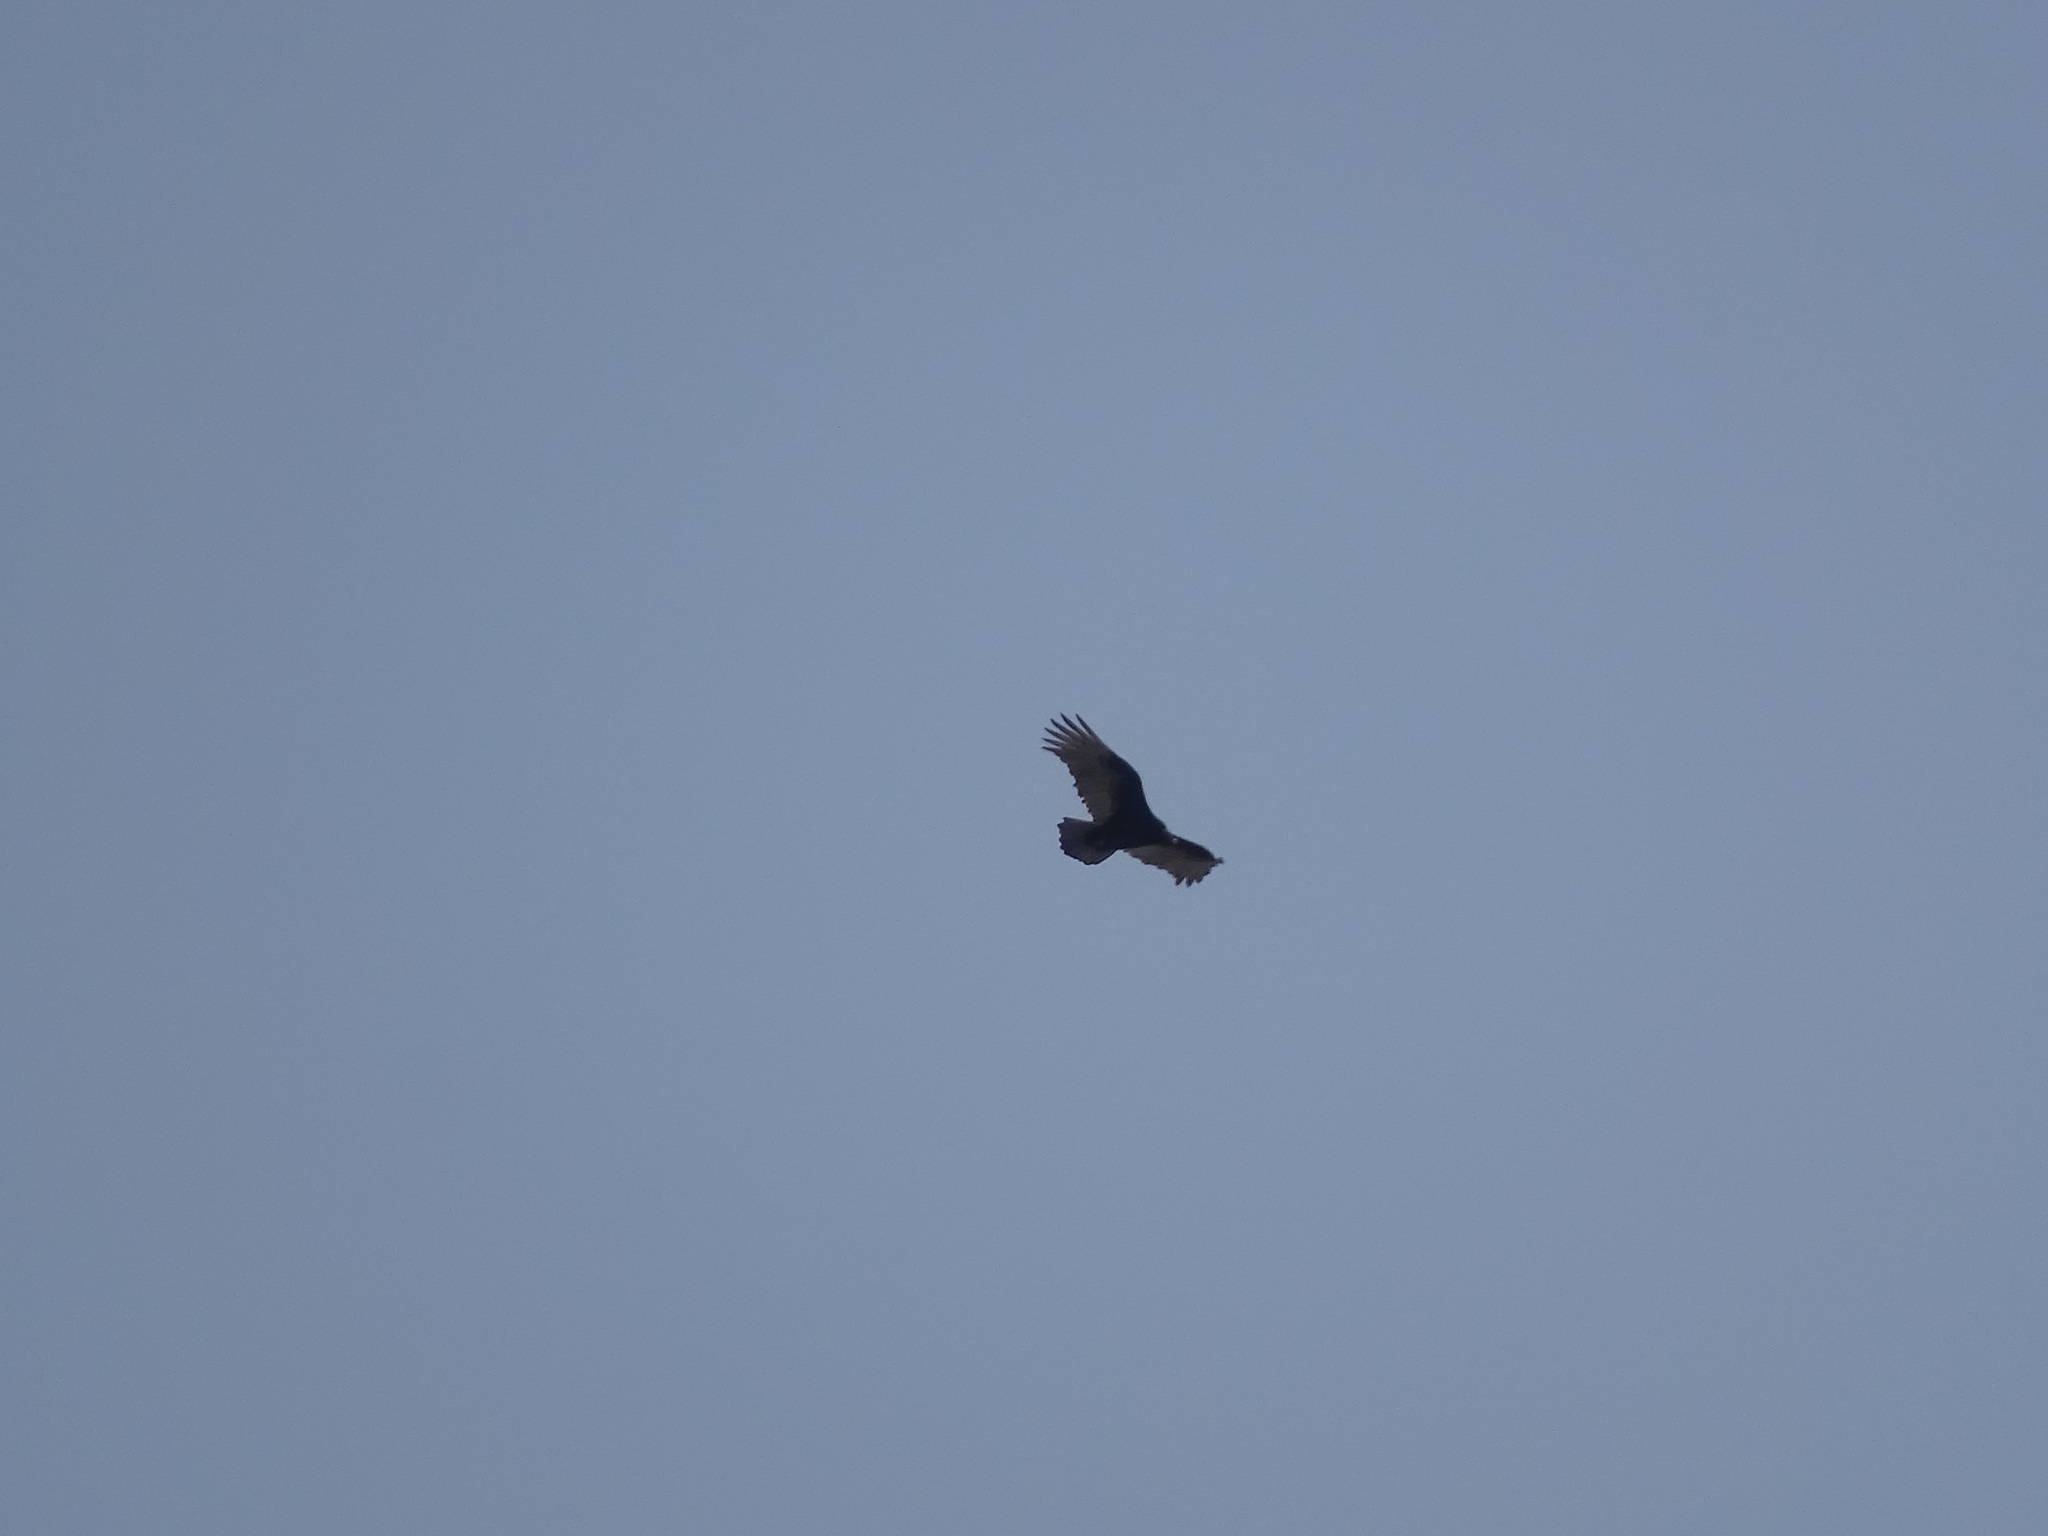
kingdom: Animalia
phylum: Chordata
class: Aves
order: Accipitriformes
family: Cathartidae
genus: Cathartes
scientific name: Cathartes aura
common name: Turkey vulture
